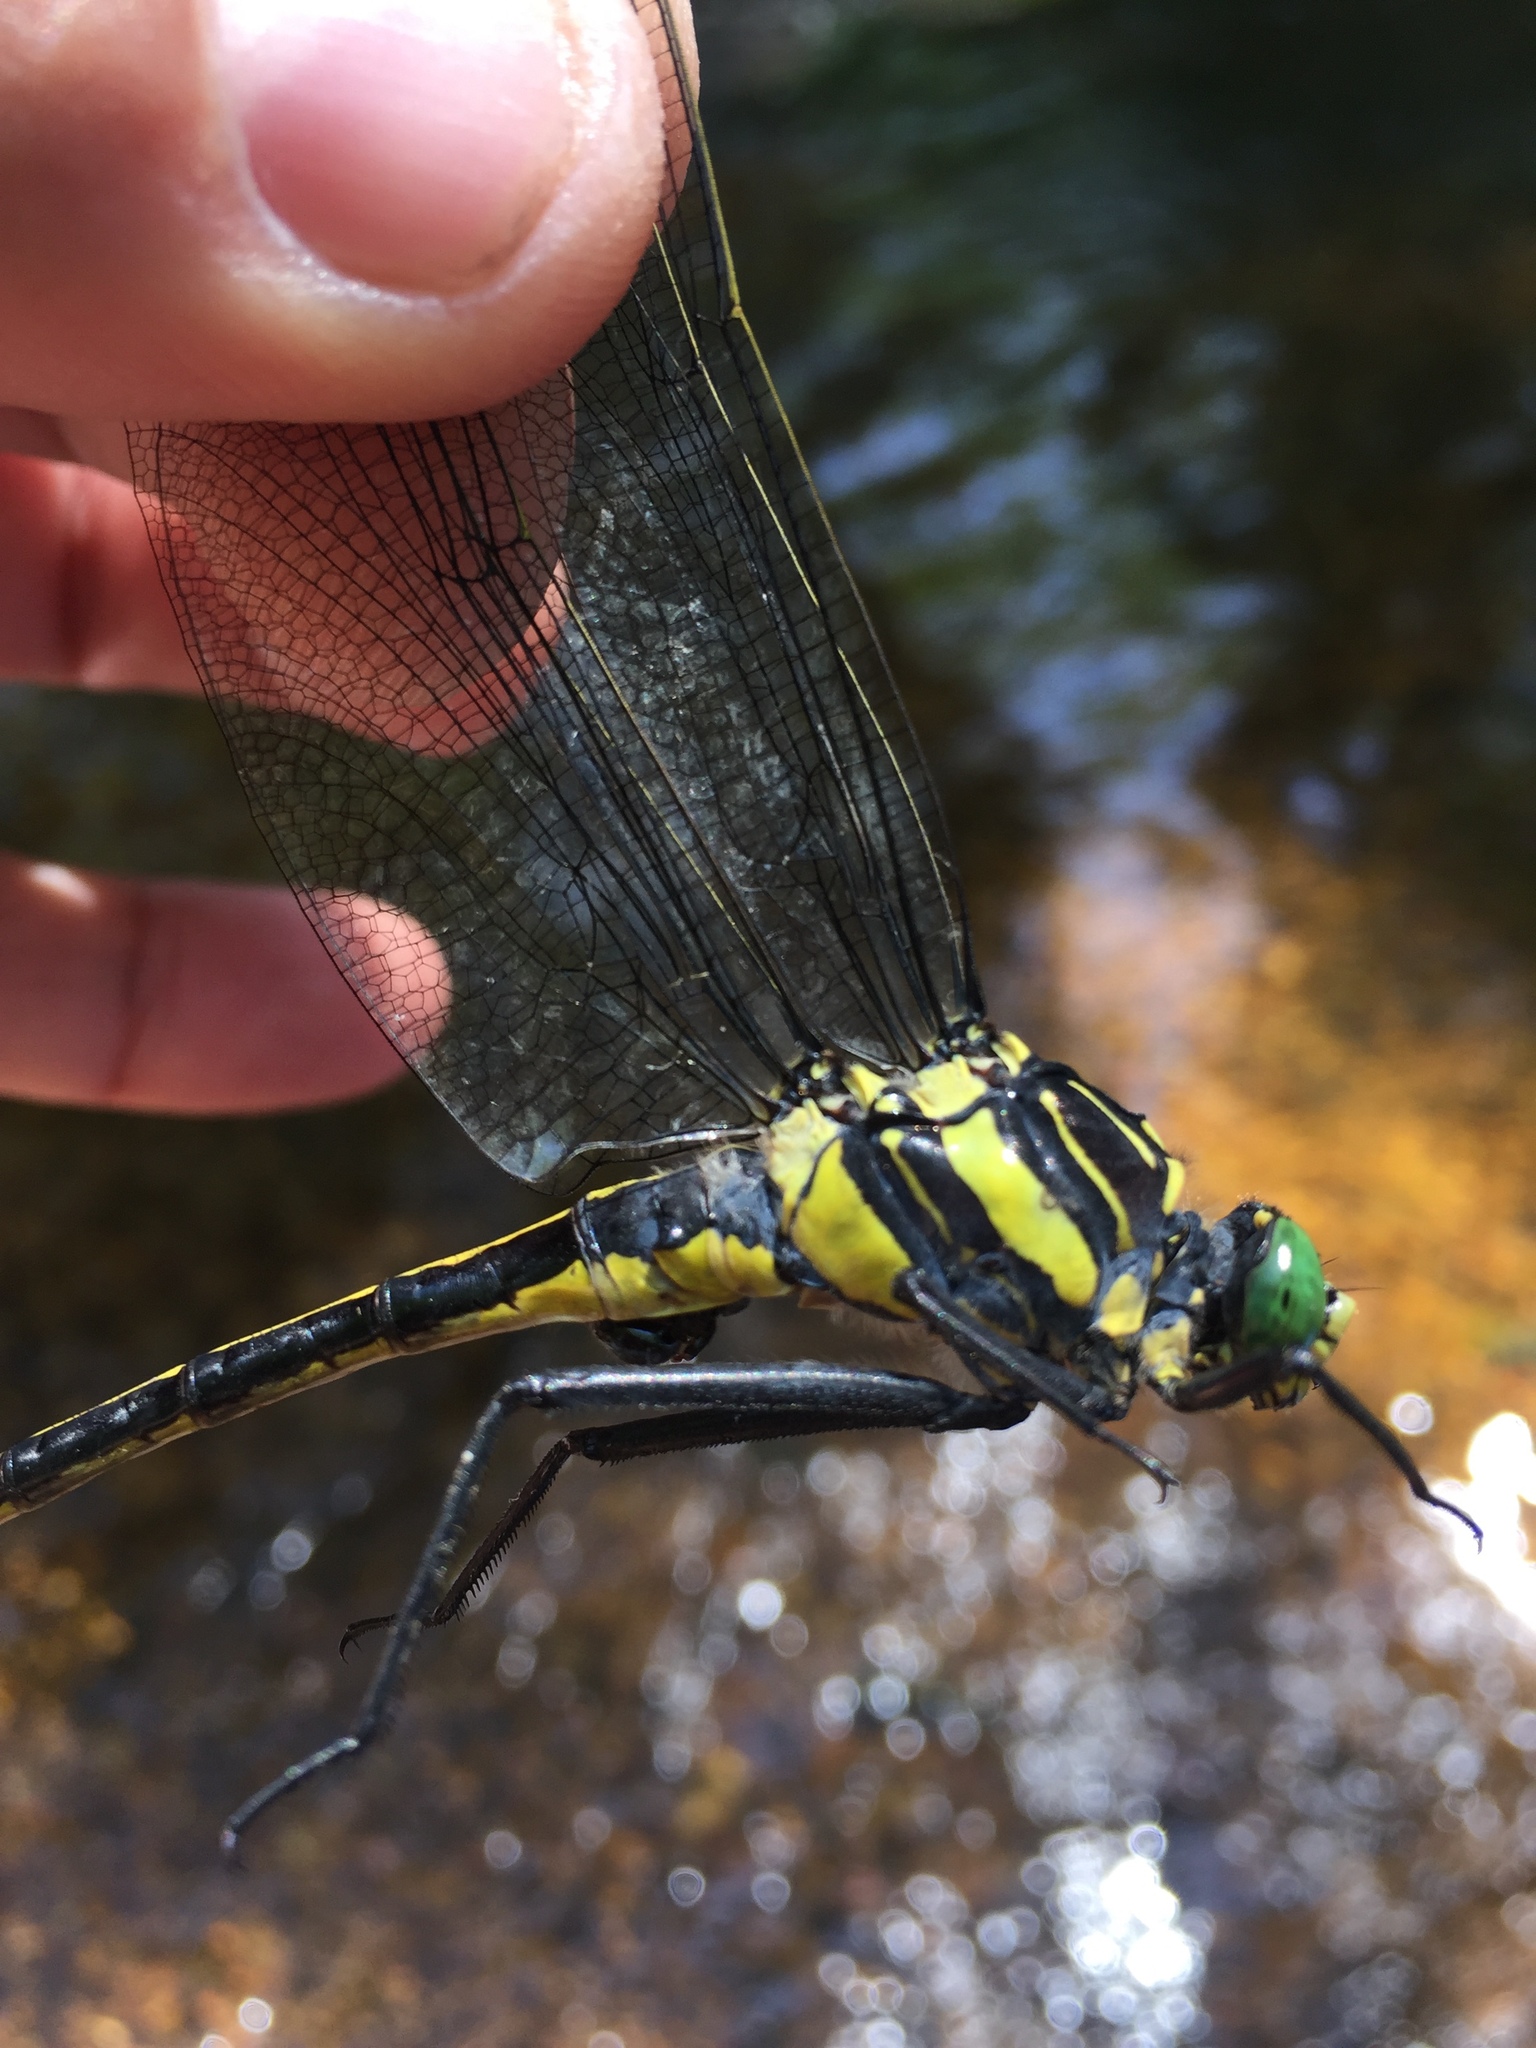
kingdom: Animalia
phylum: Arthropoda
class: Insecta
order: Odonata
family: Gomphidae
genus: Hagenius
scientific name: Hagenius brevistylus
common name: Dragonhunter
